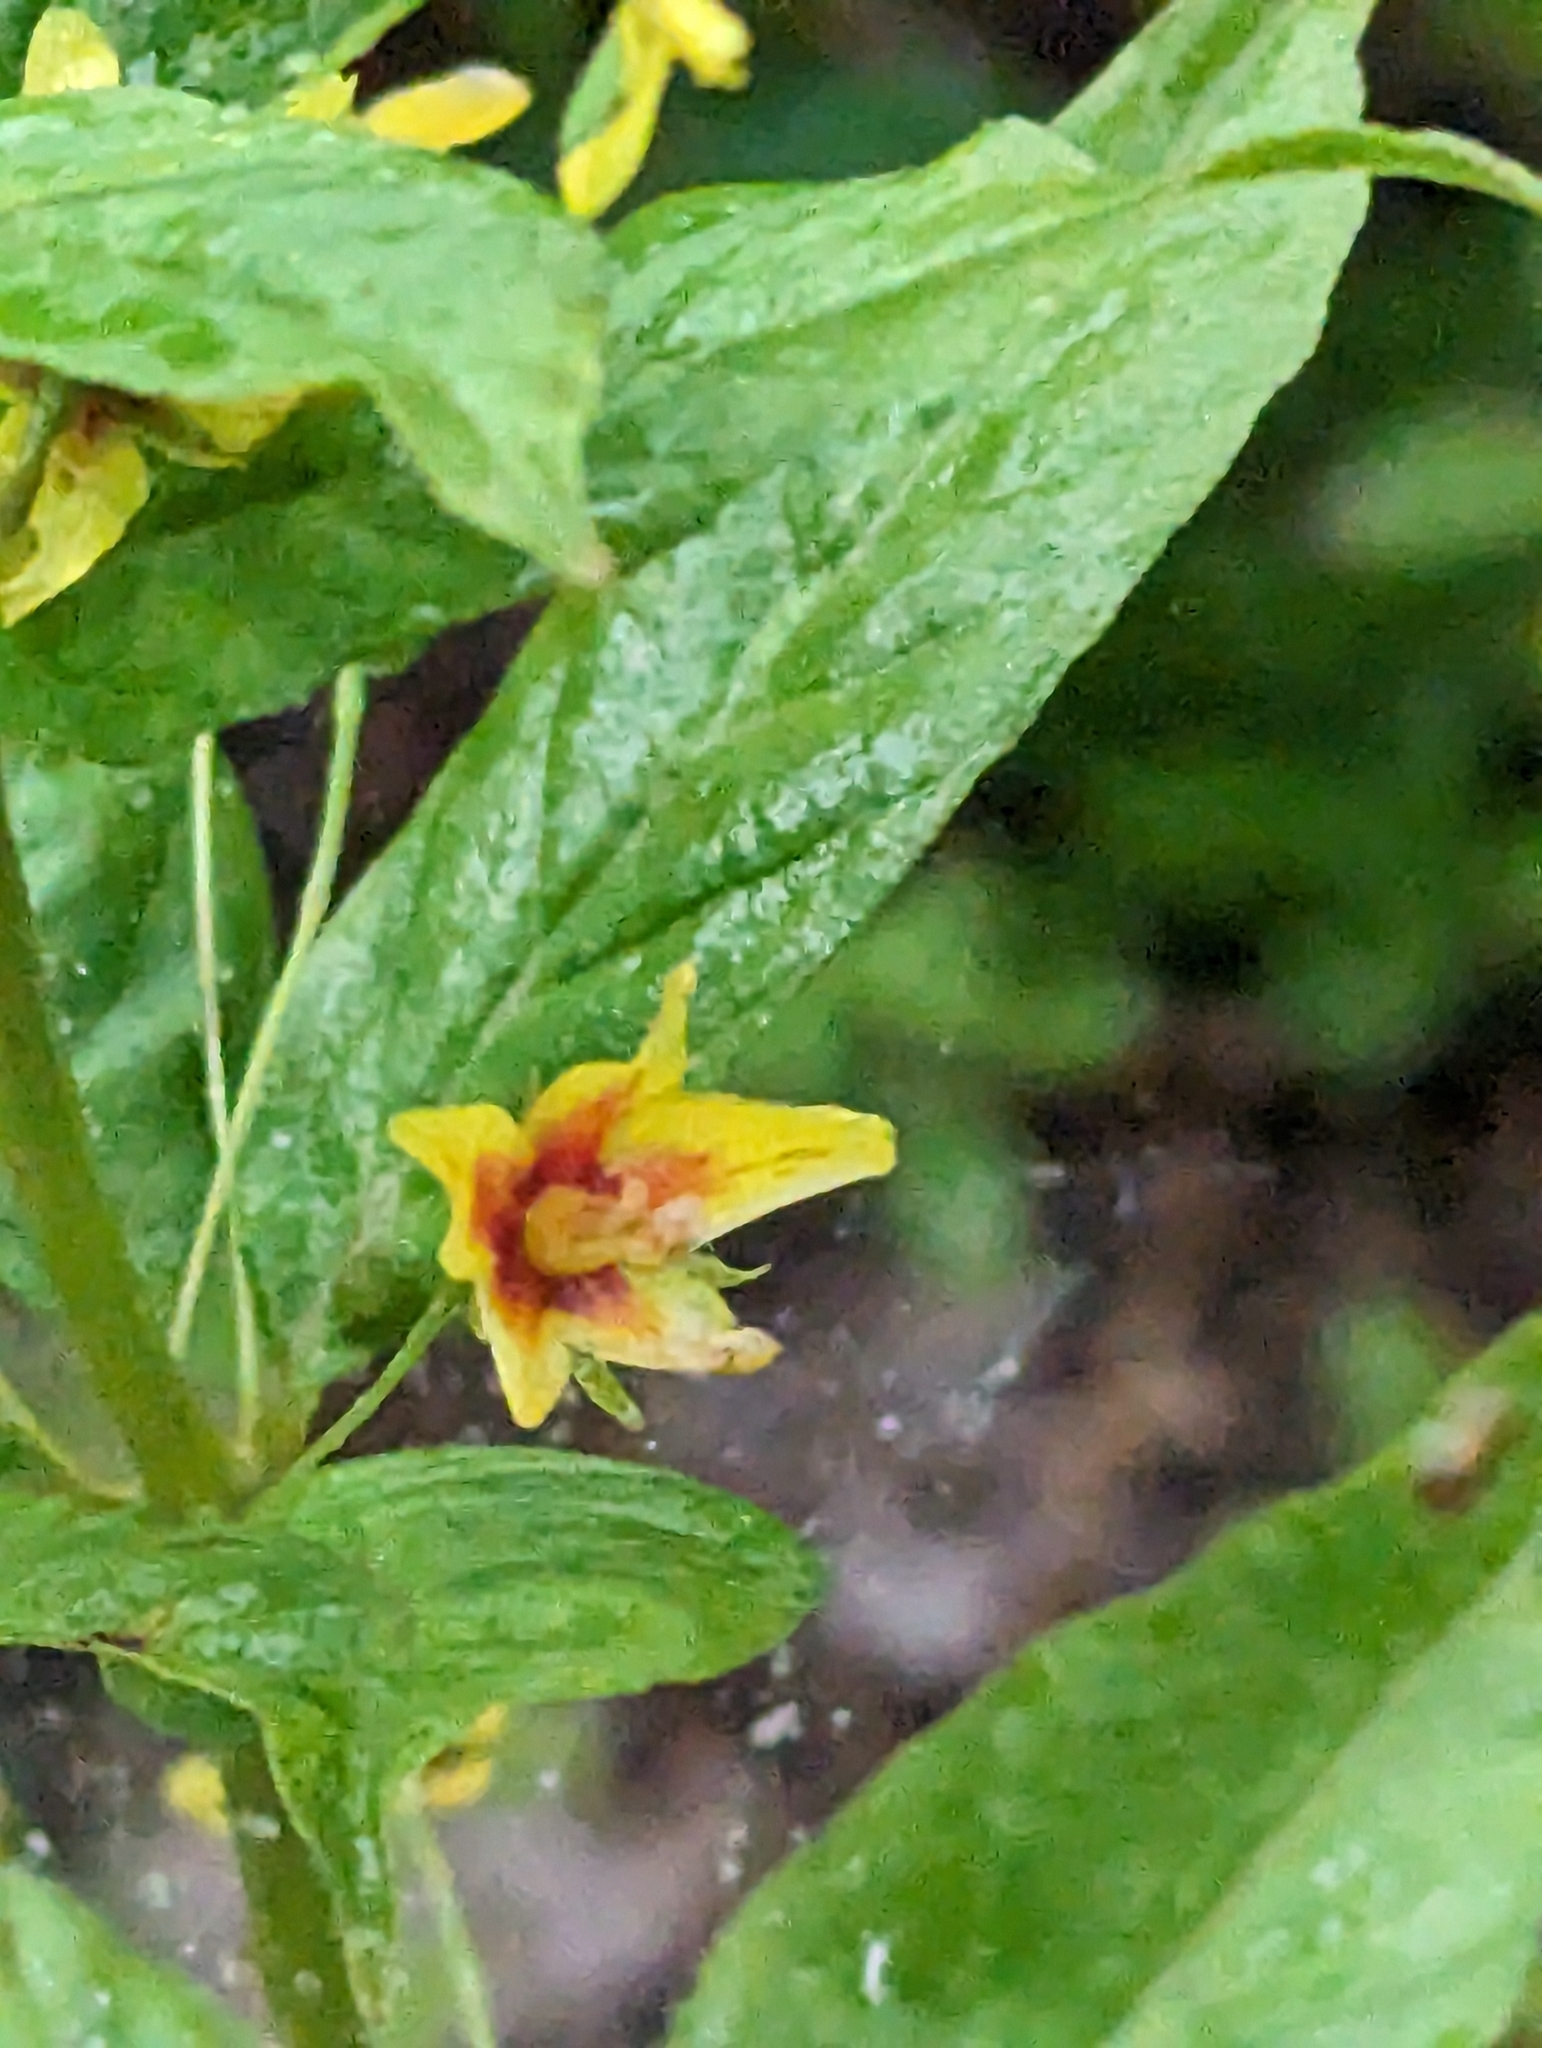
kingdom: Plantae
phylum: Tracheophyta
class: Magnoliopsida
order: Ericales
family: Primulaceae
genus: Lysimachia
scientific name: Lysimachia quadrifolia
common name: Whorled loosestrife
